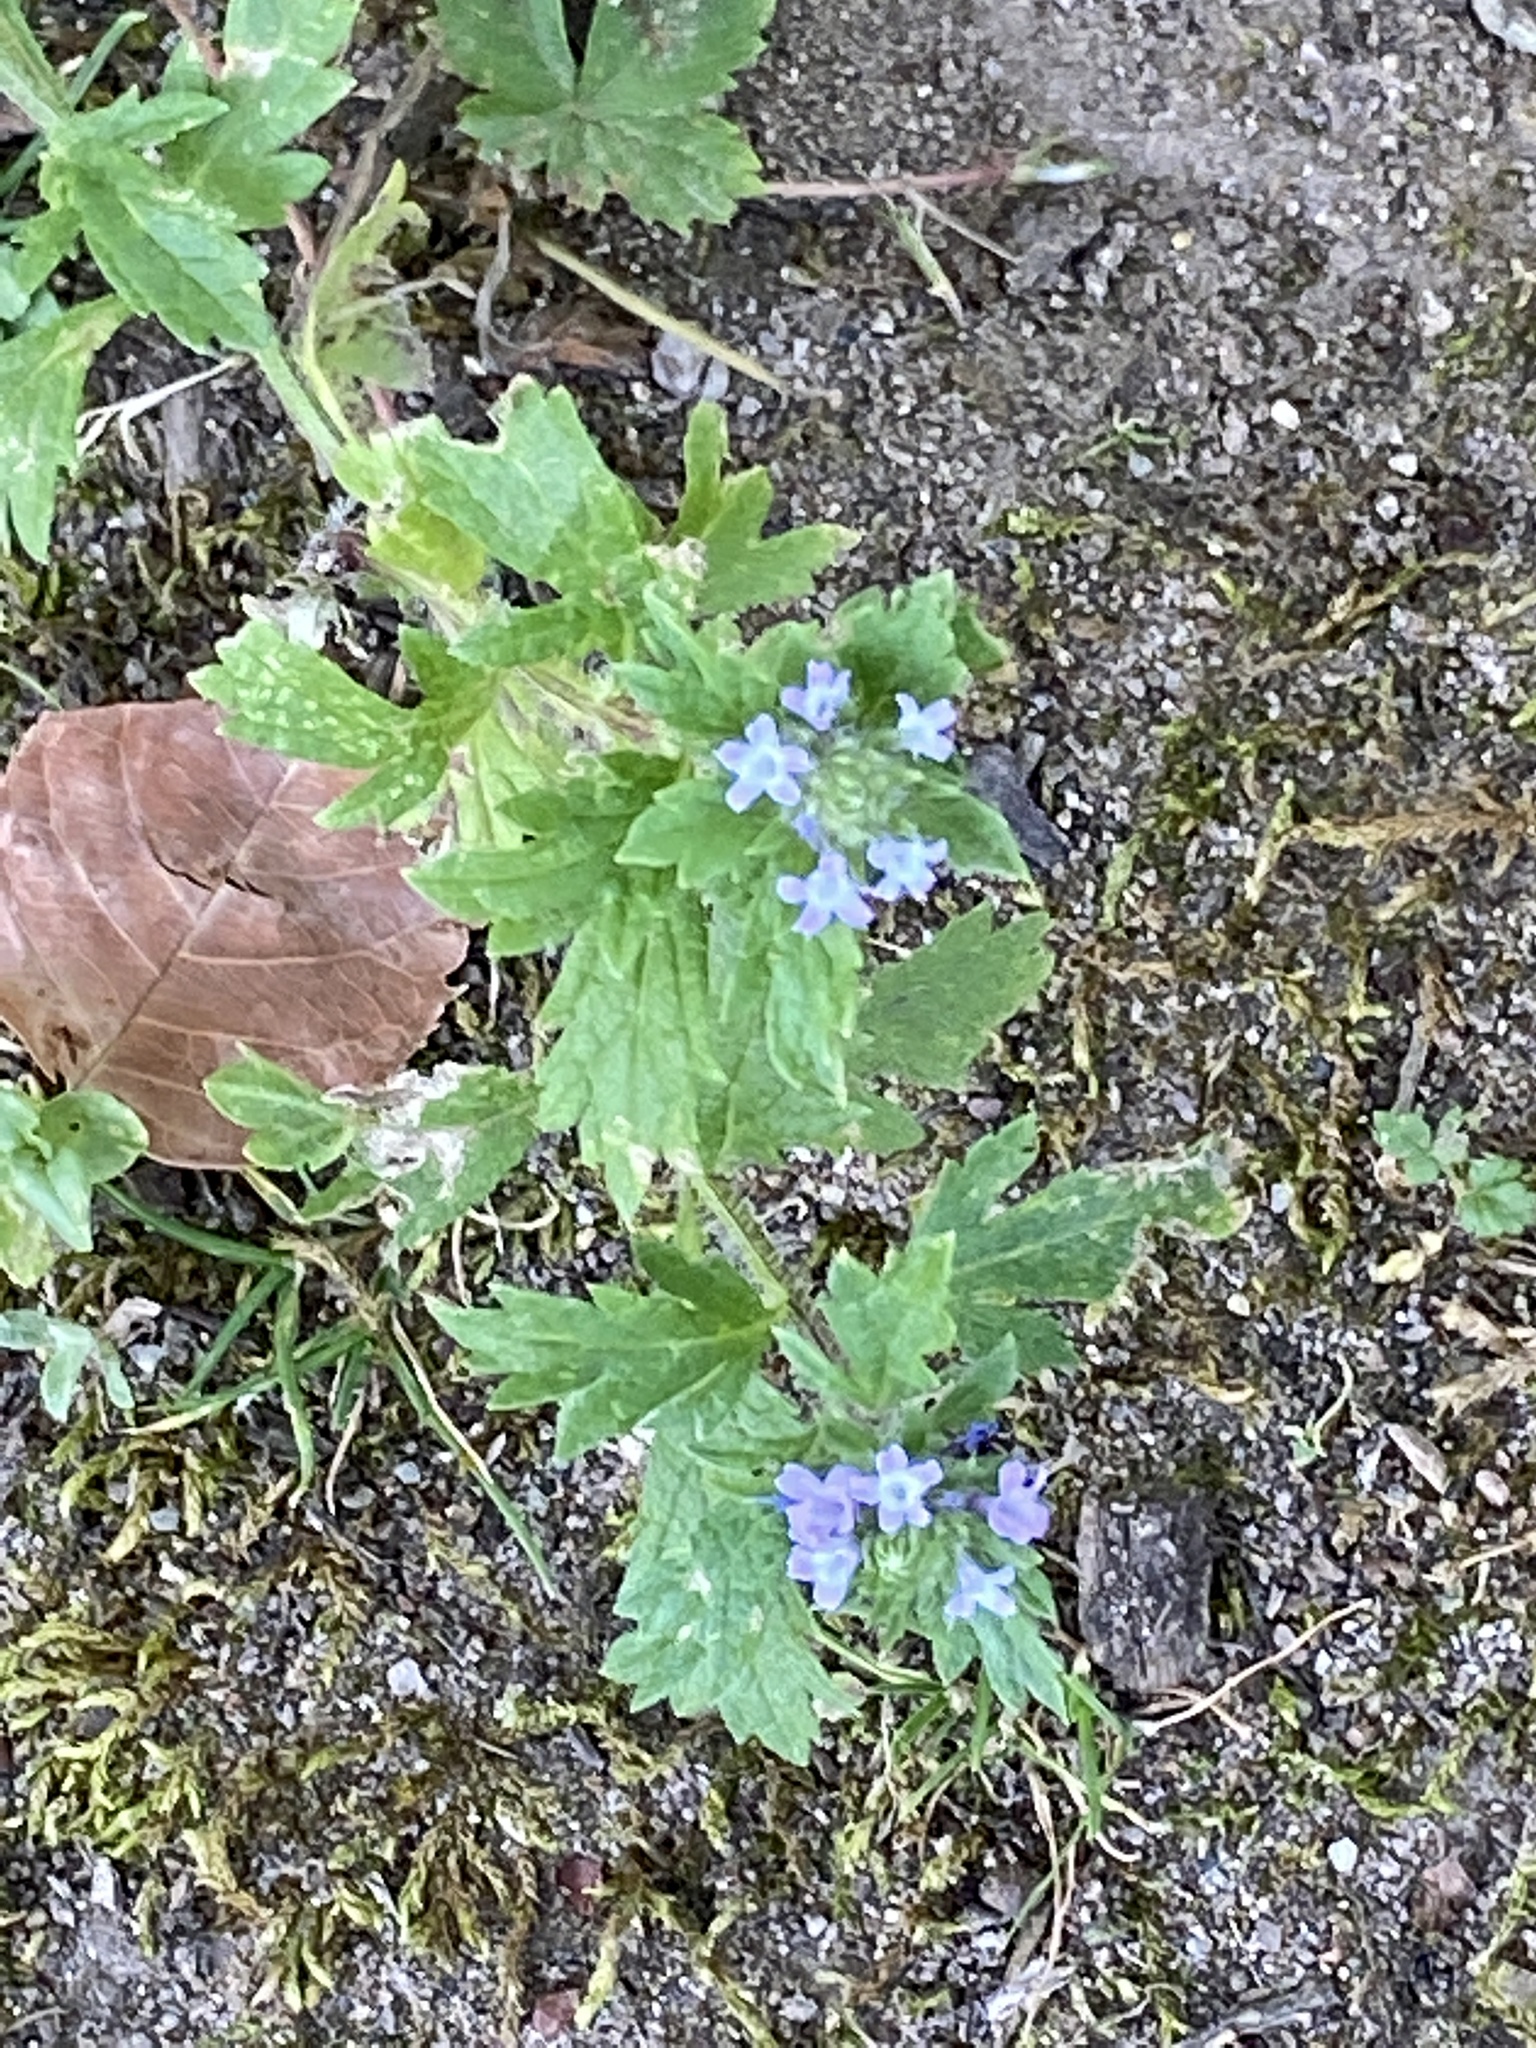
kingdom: Plantae
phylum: Tracheophyta
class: Magnoliopsida
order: Lamiales
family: Verbenaceae
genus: Verbena
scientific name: Verbena bracteata
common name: Bracted vervain
